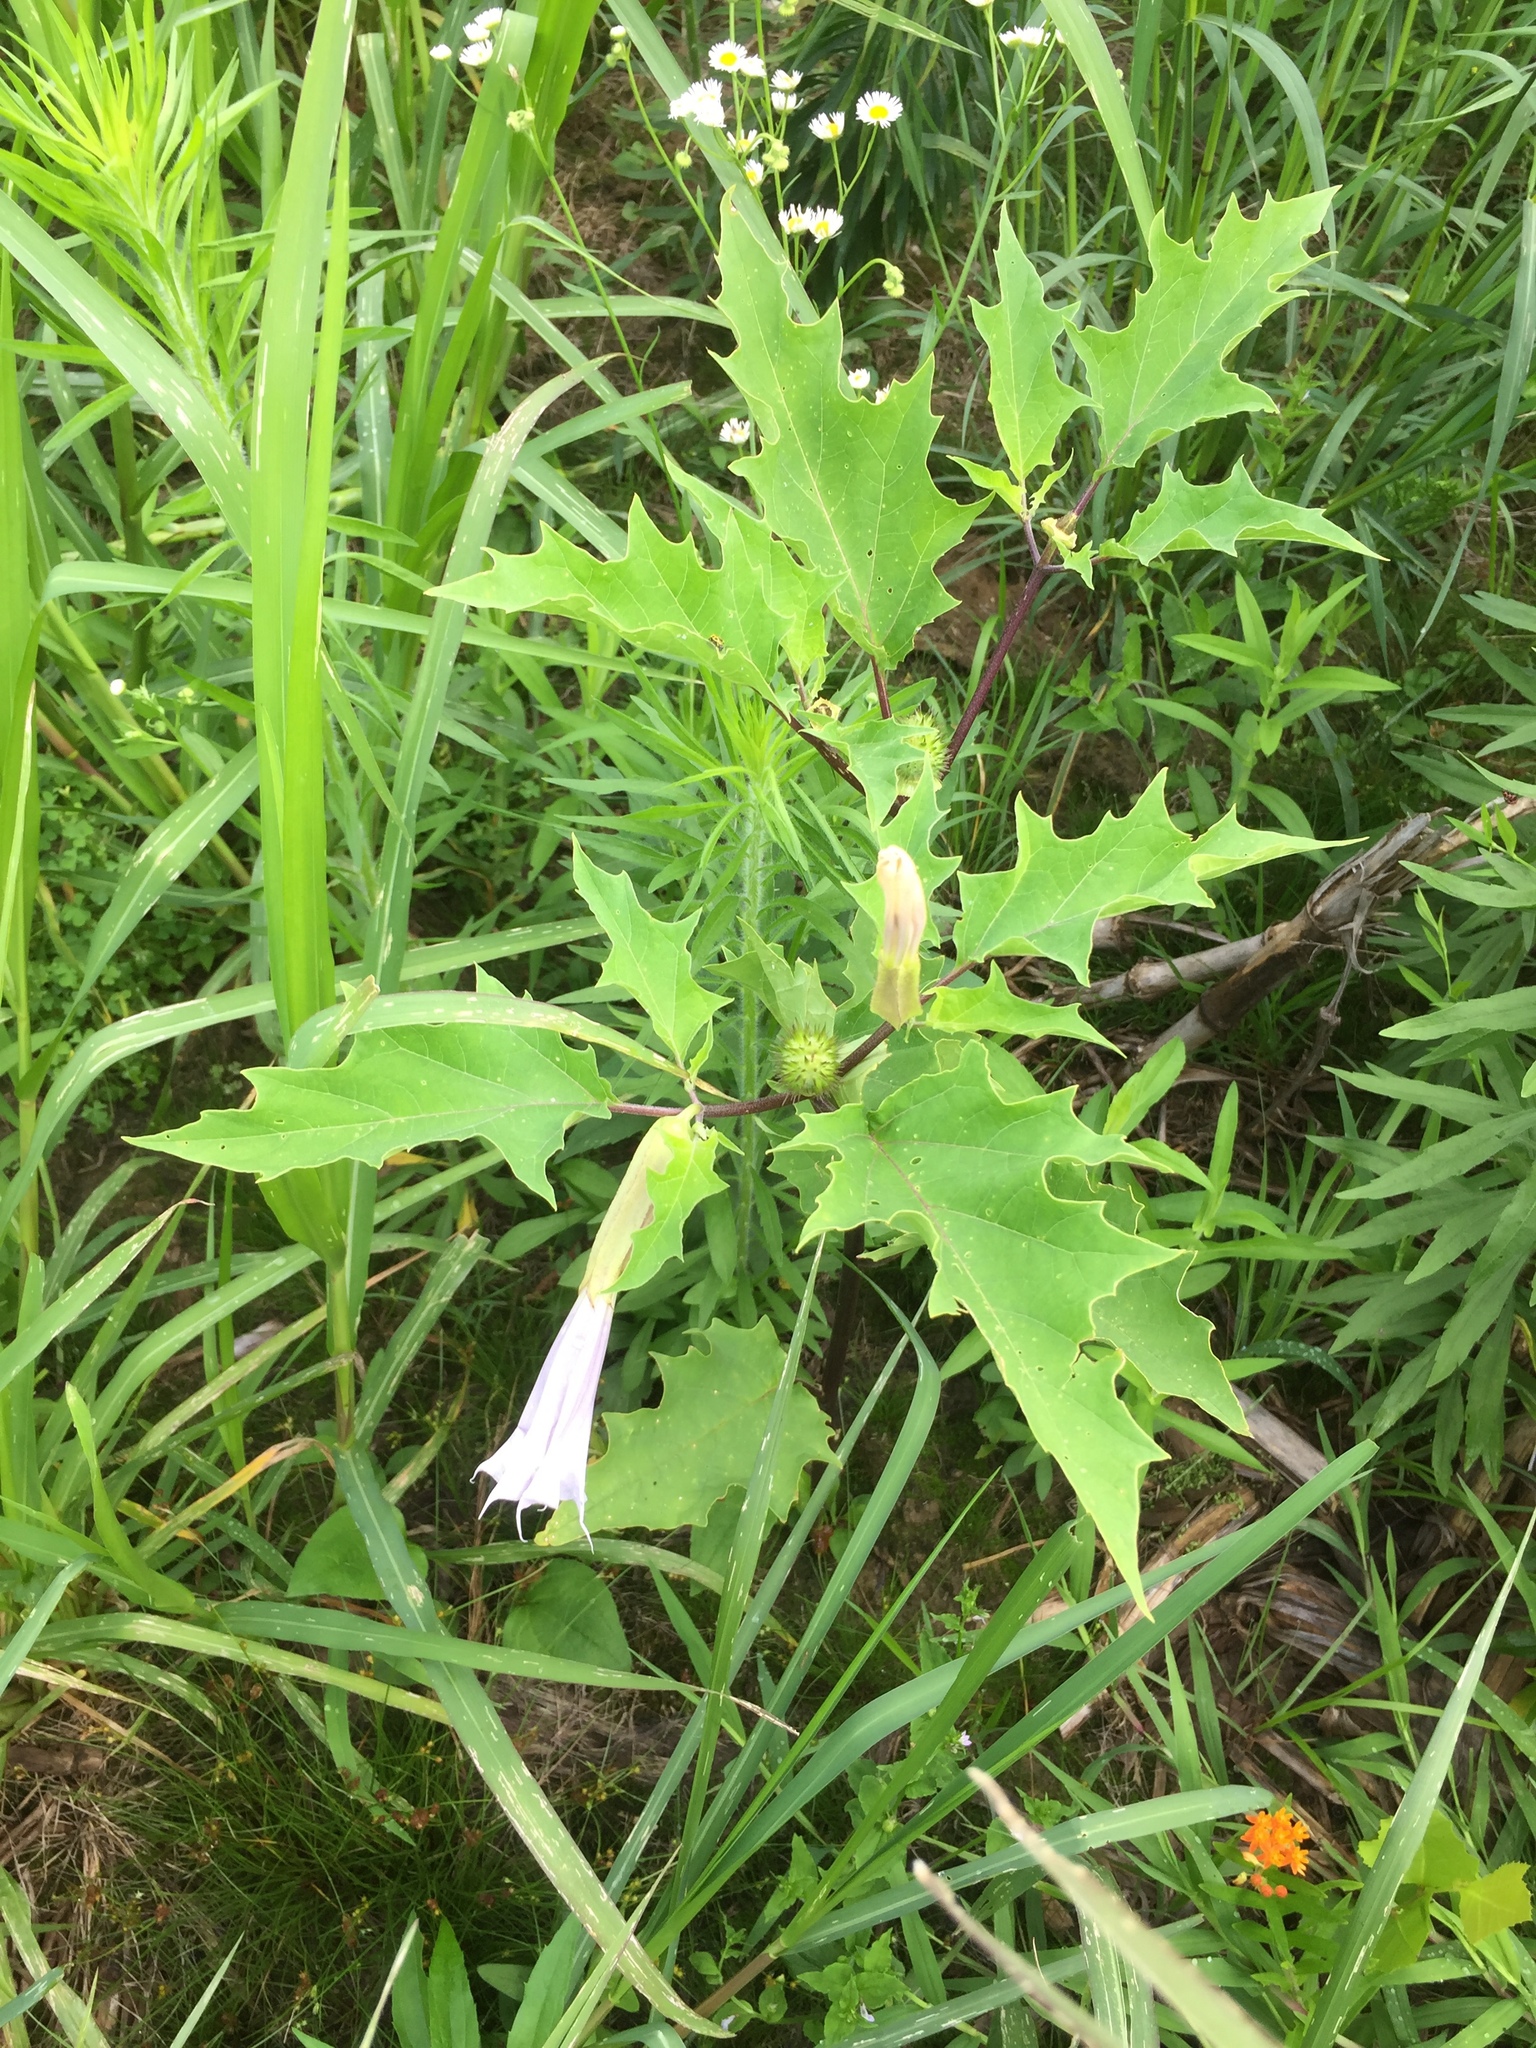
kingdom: Plantae
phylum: Tracheophyta
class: Magnoliopsida
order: Solanales
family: Solanaceae
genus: Datura
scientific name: Datura stramonium
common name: Thorn-apple
